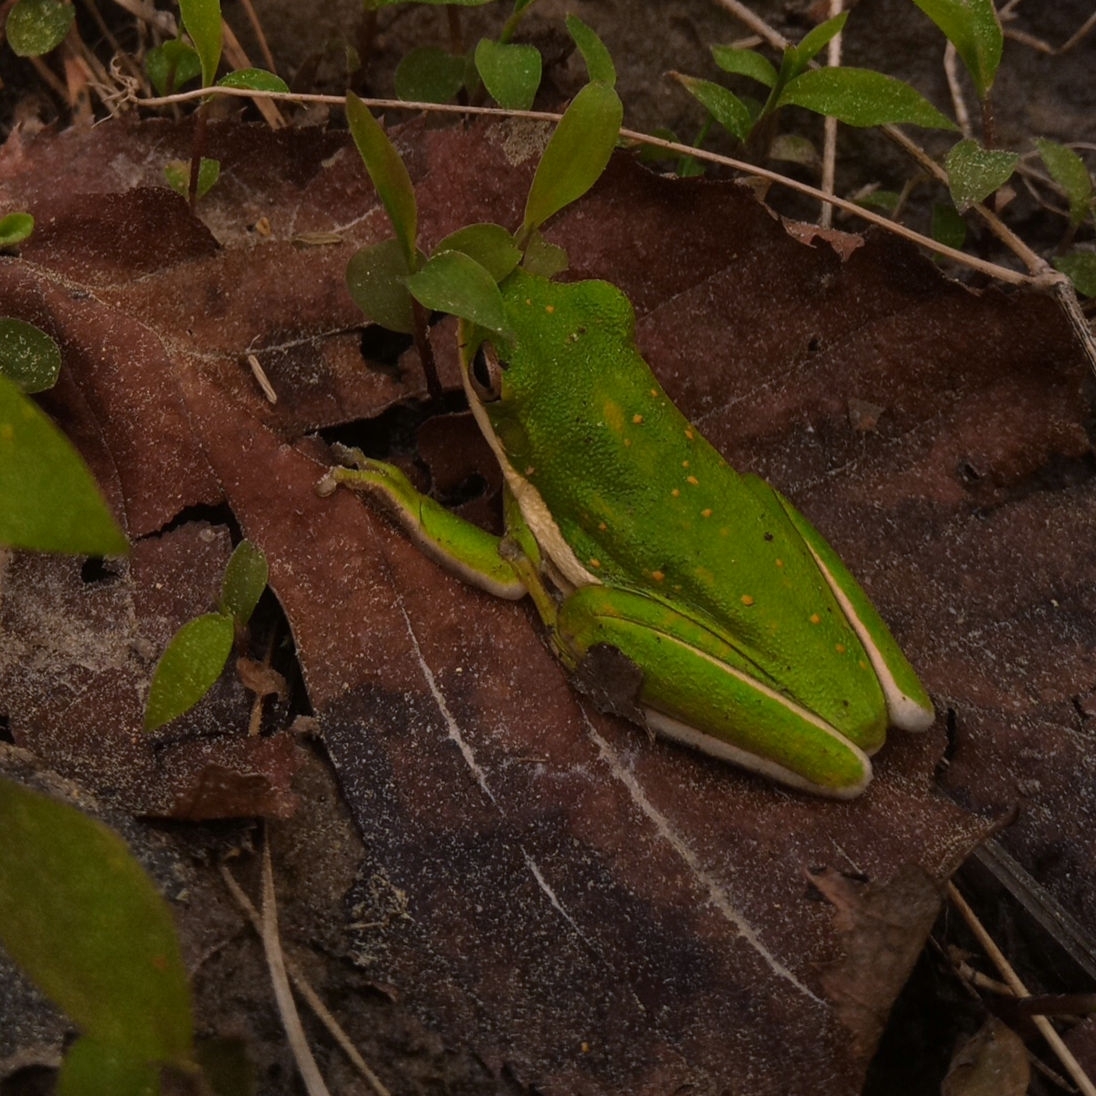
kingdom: Animalia
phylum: Chordata
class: Amphibia
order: Anura
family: Hylidae
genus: Dryophytes
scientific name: Dryophytes cinereus
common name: Green treefrog
